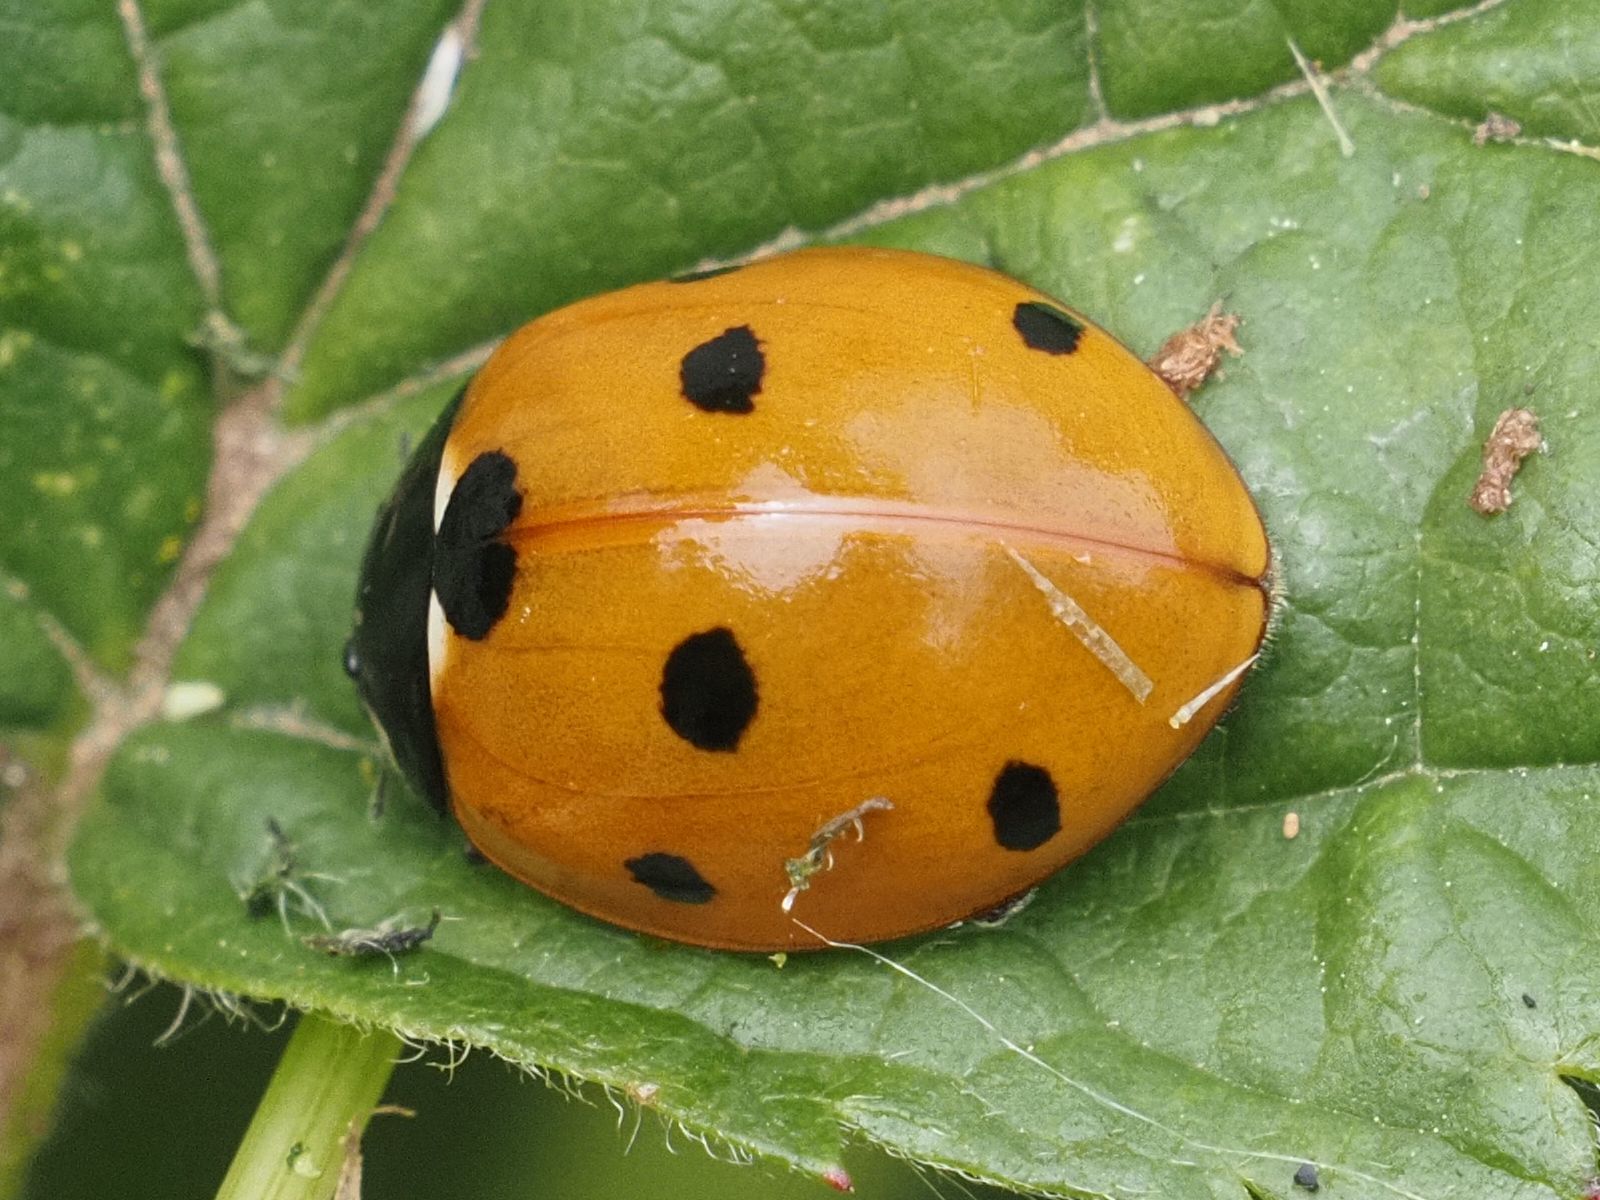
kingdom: Animalia
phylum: Arthropoda
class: Insecta
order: Coleoptera
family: Coccinellidae
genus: Coccinella
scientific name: Coccinella septempunctata
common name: Sevenspotted lady beetle
